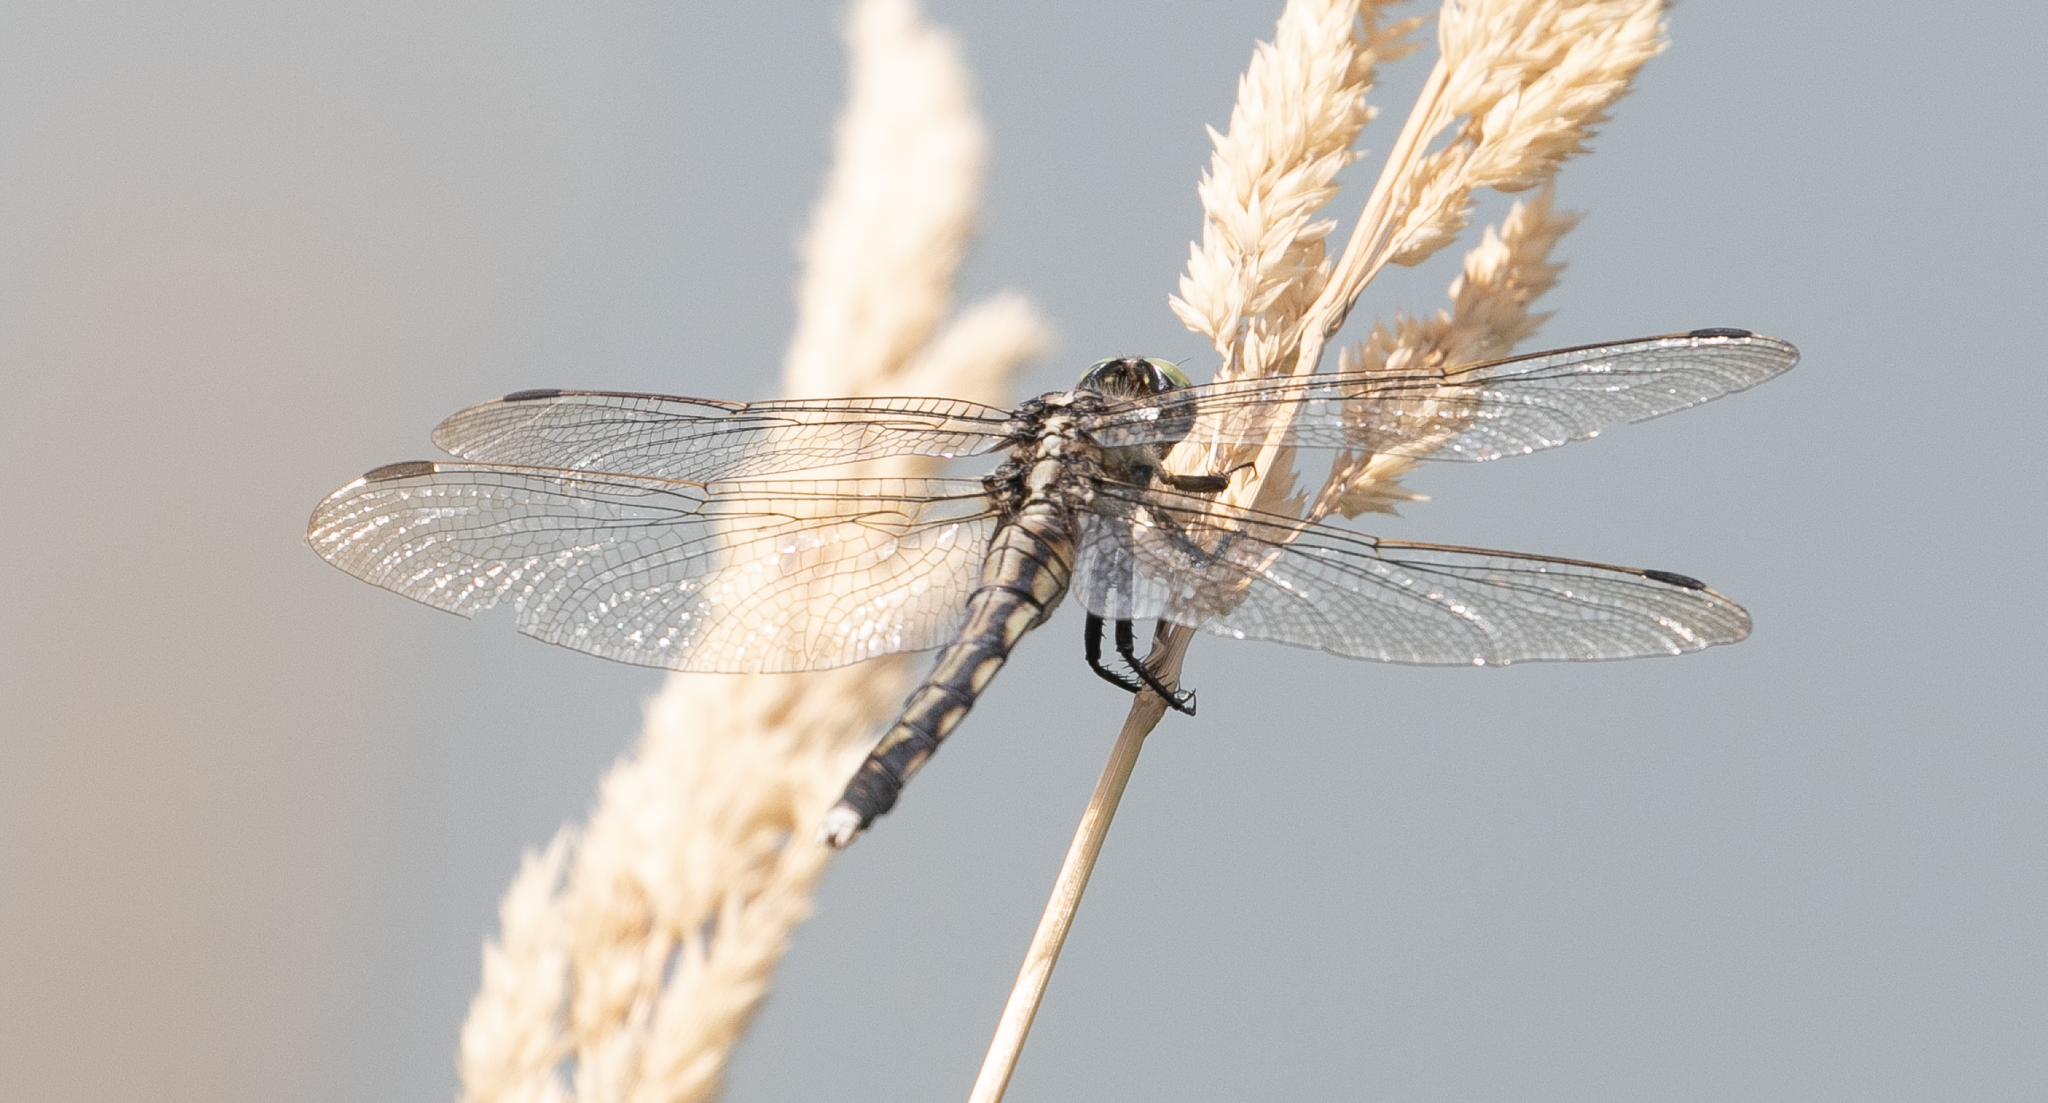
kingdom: Animalia
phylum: Arthropoda
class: Insecta
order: Odonata
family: Libellulidae
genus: Orthetrum
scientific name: Orthetrum albistylum
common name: White-tailed skimmer
